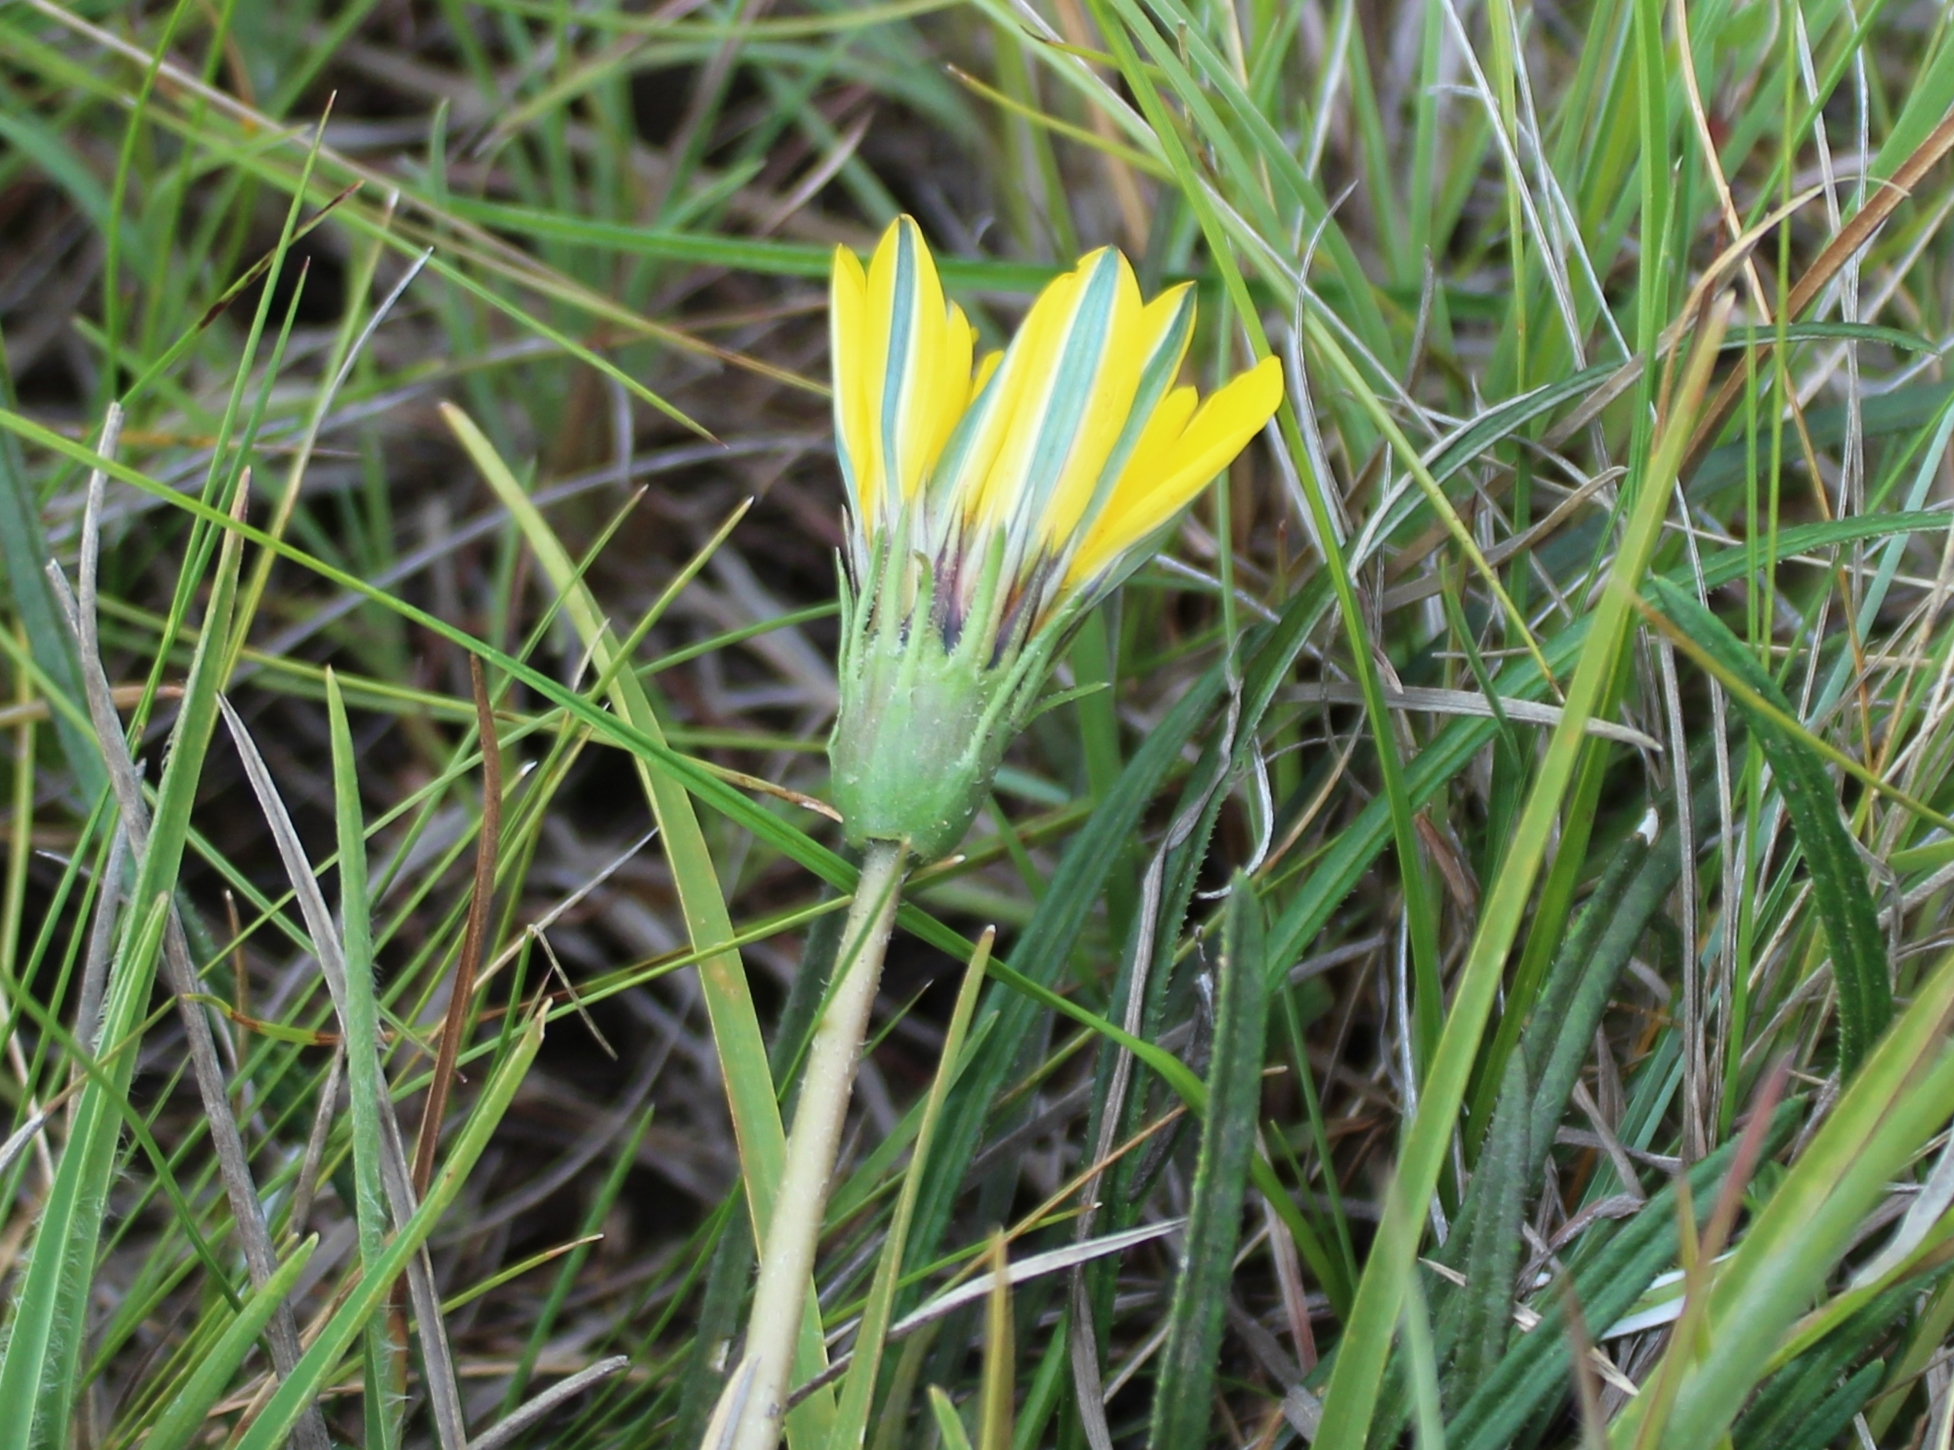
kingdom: Plantae
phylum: Tracheophyta
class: Magnoliopsida
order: Asterales
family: Asteraceae
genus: Gazania
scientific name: Gazania linearis
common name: Treasureflower
